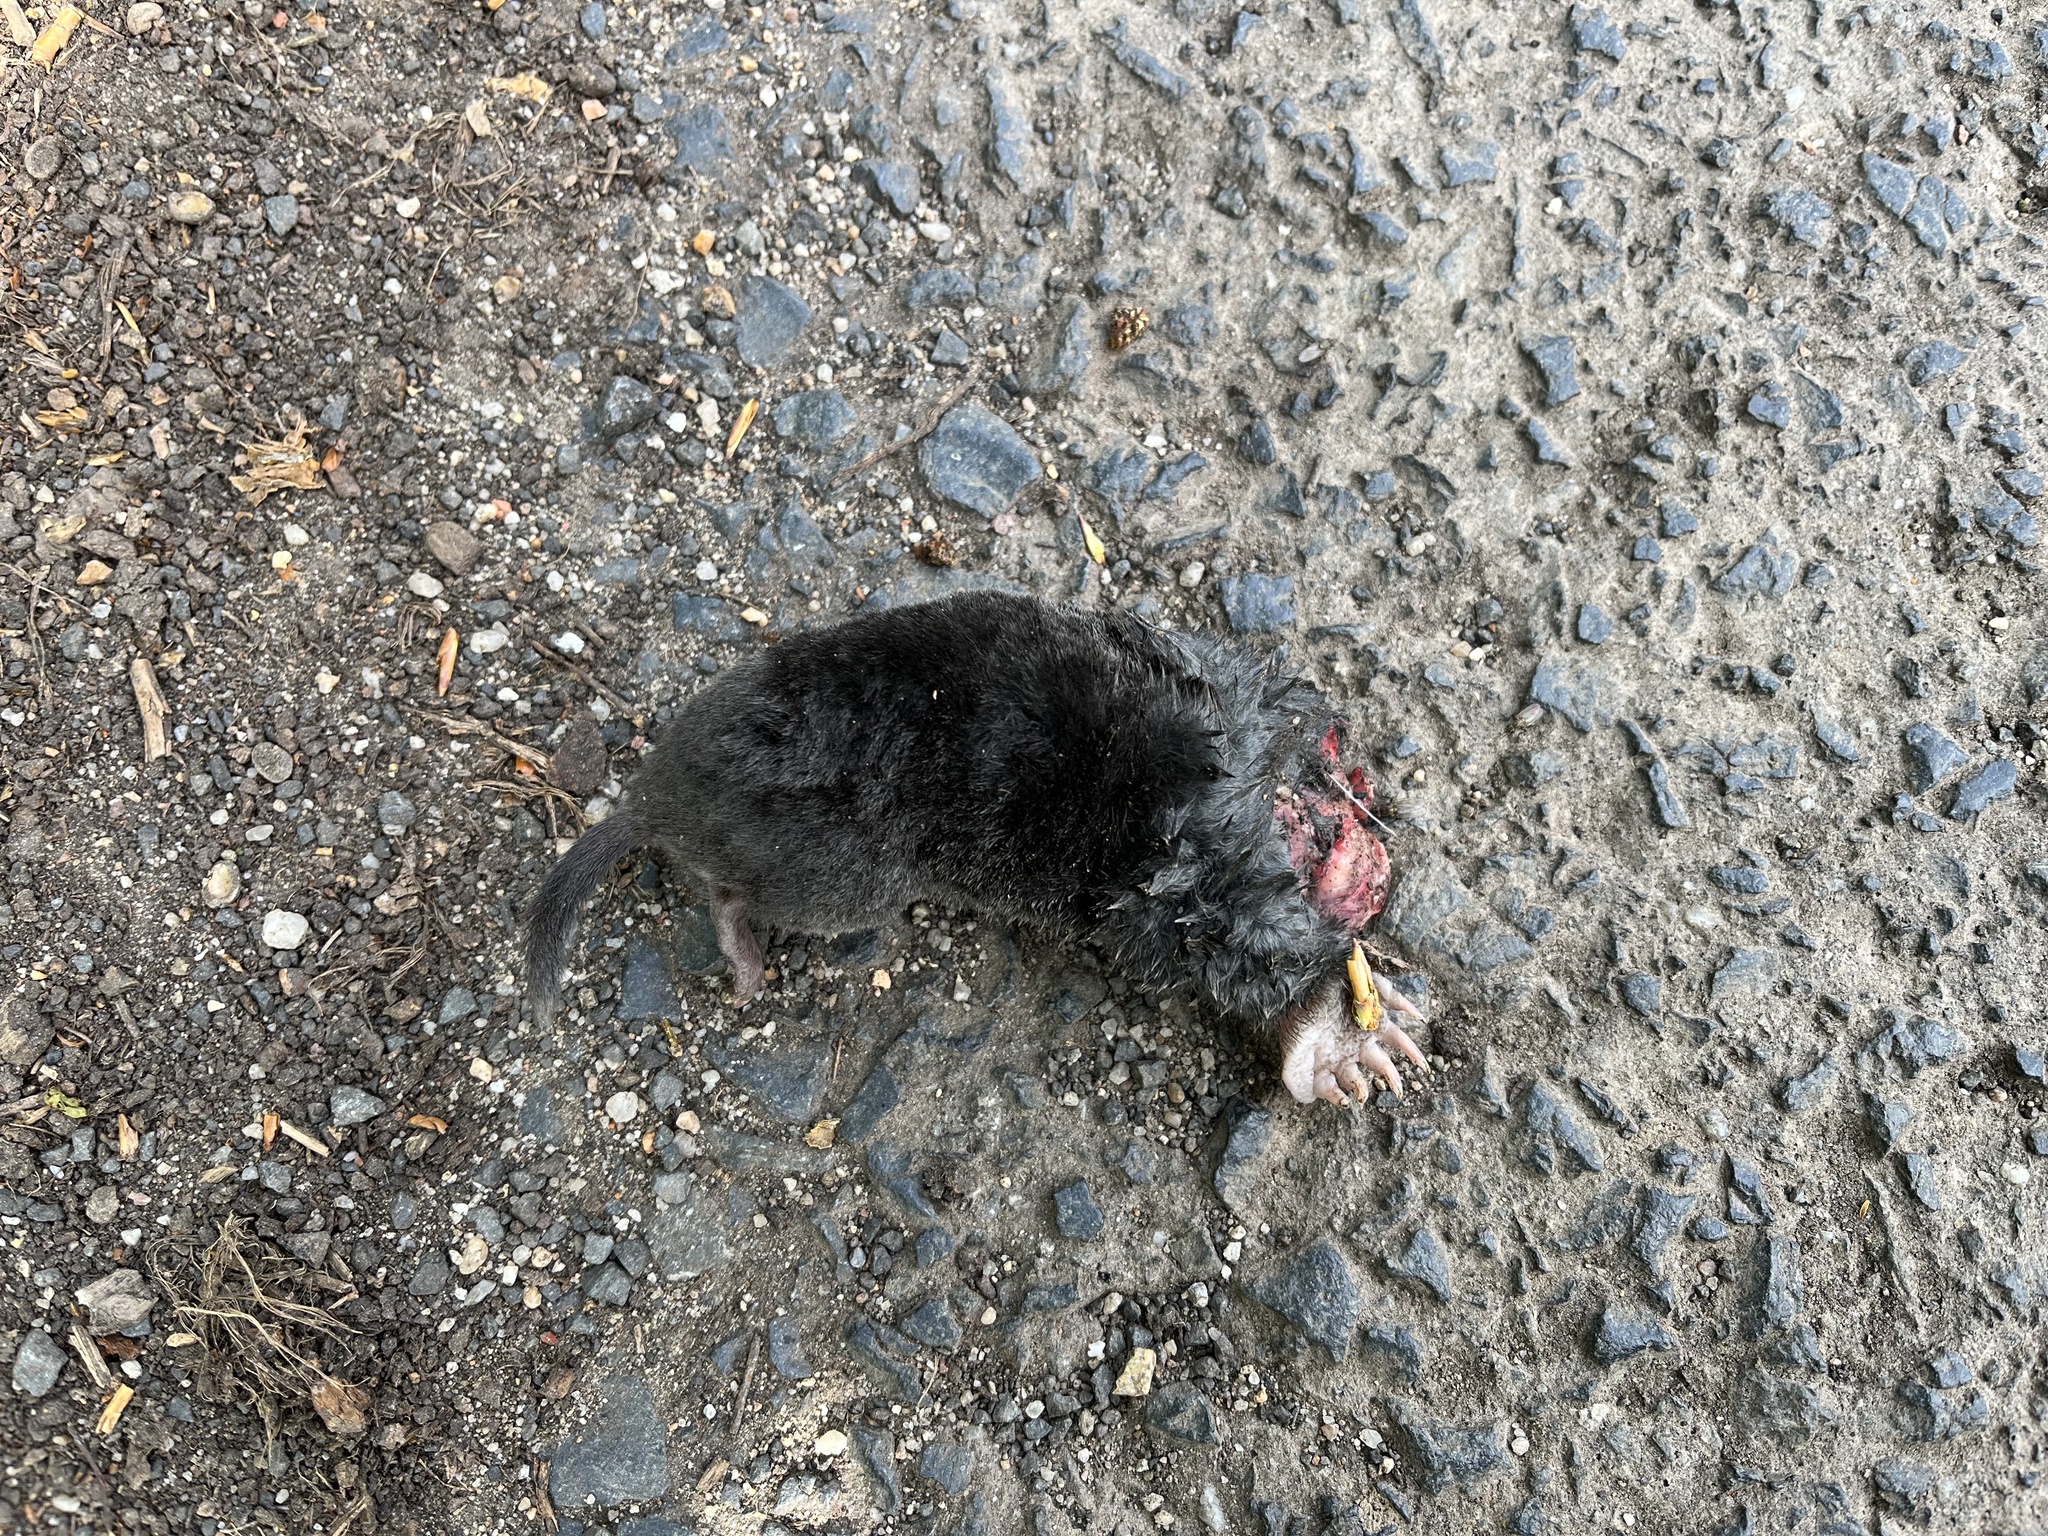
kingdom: Animalia
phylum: Chordata
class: Mammalia
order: Soricomorpha
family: Talpidae
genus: Talpa
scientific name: Talpa europaea
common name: European mole
